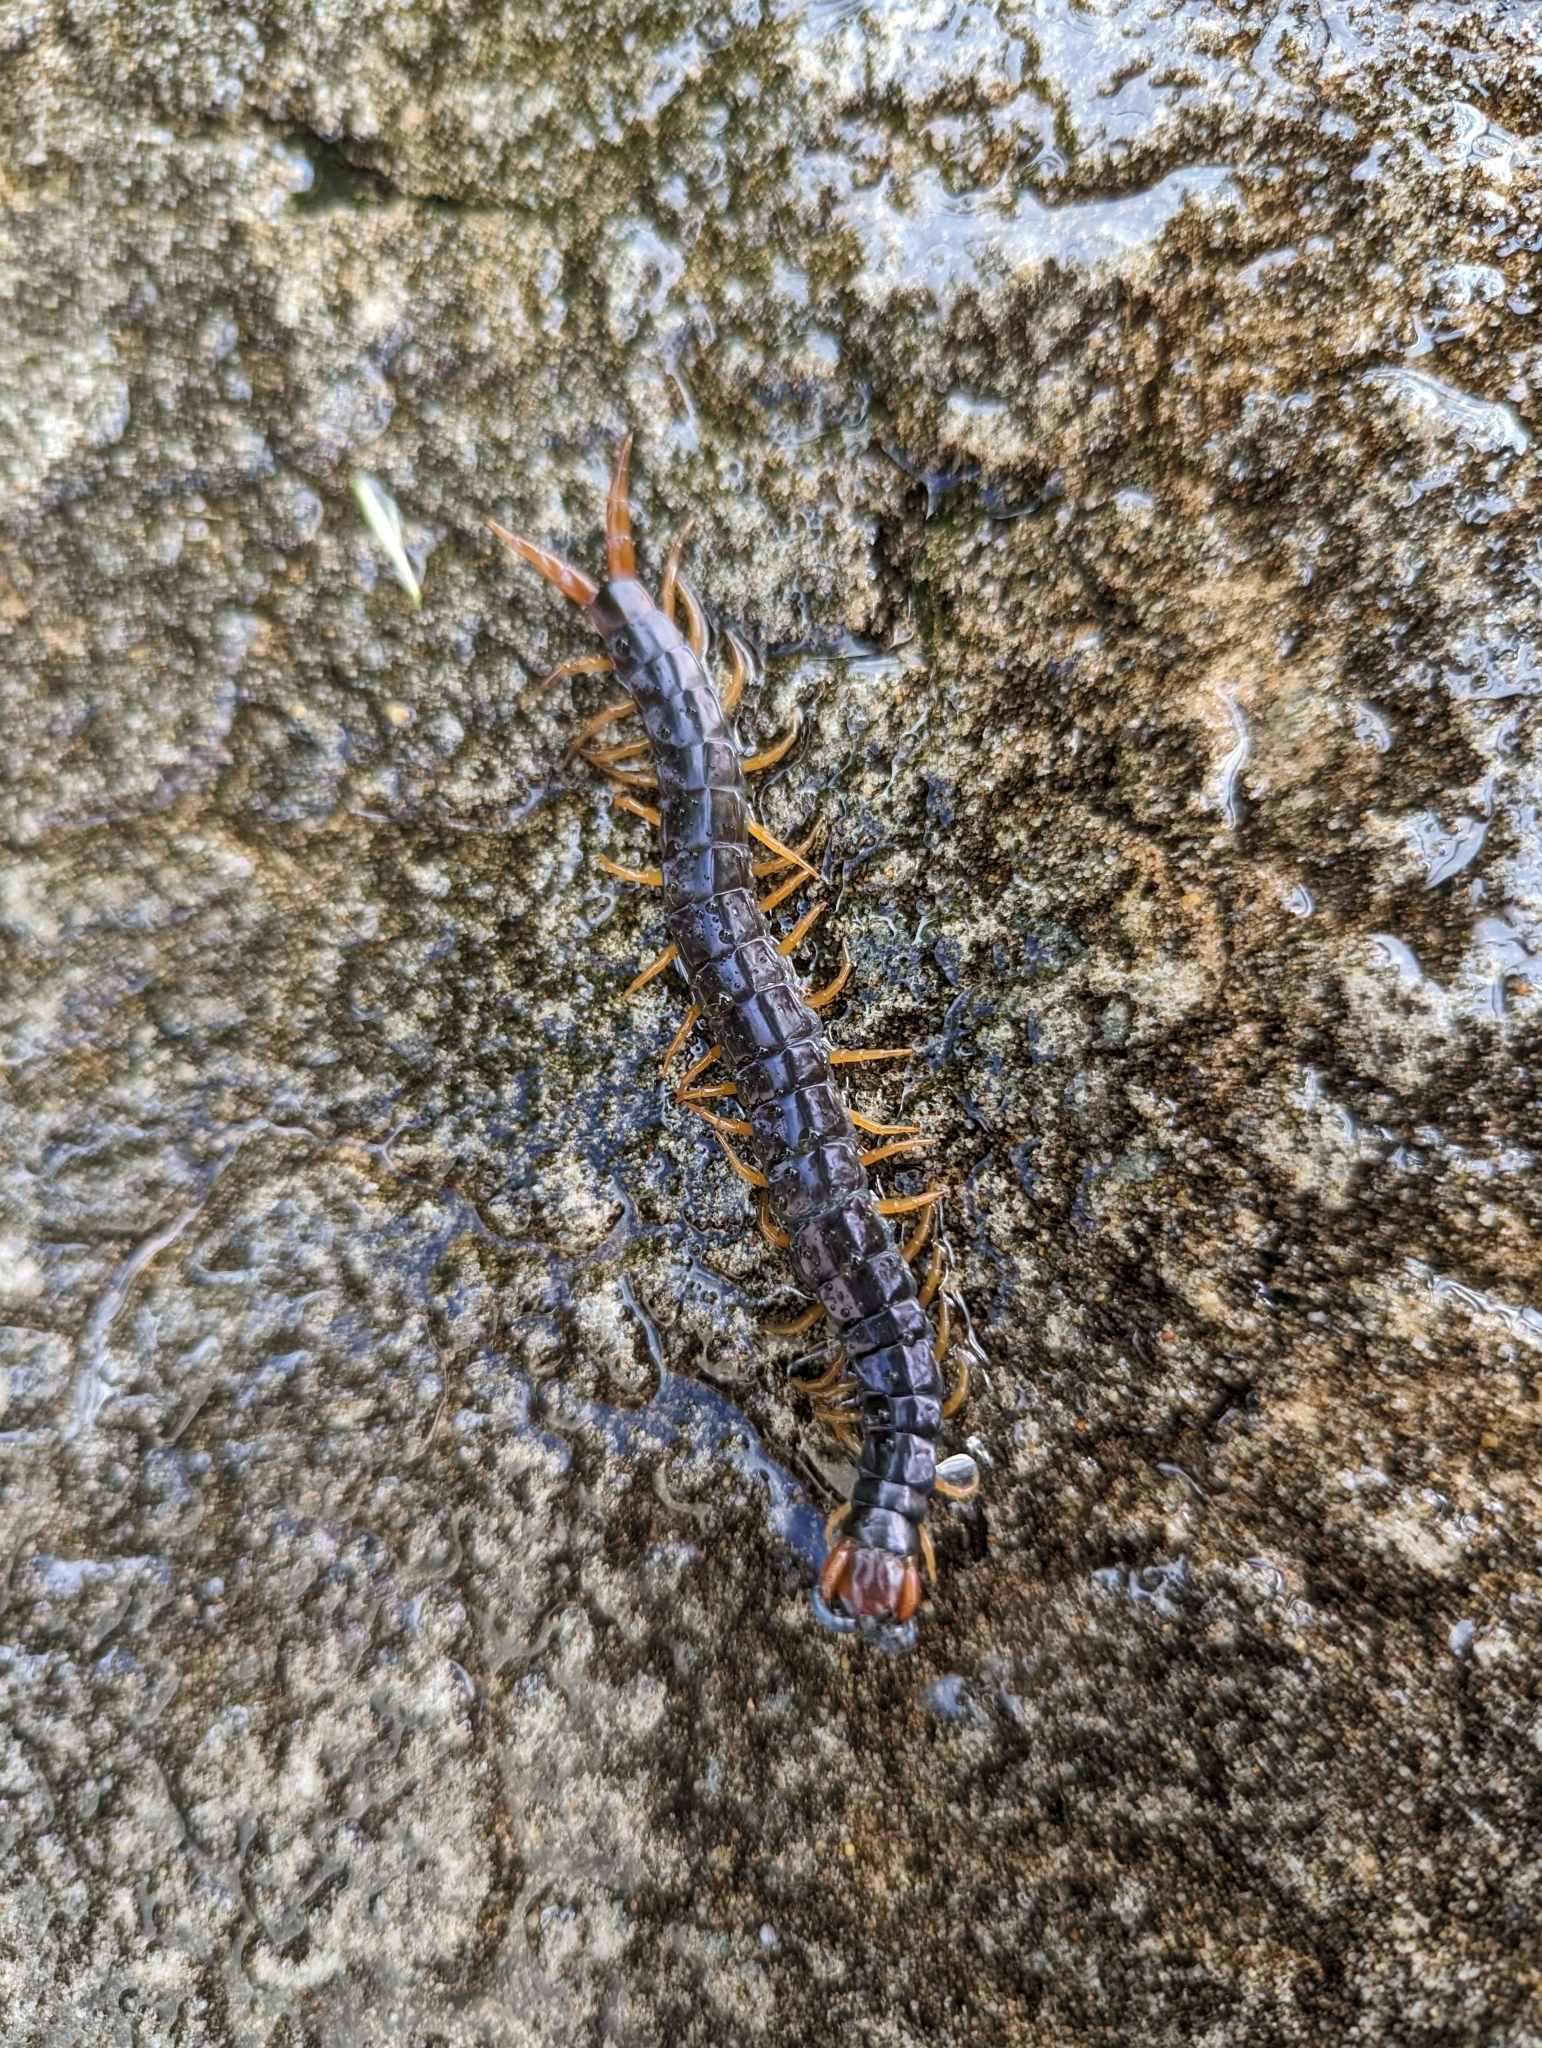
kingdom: Animalia
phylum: Arthropoda
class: Chilopoda
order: Scolopendromorpha
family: Scolopendridae
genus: Cormocephalus
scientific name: Cormocephalus westwoodi
